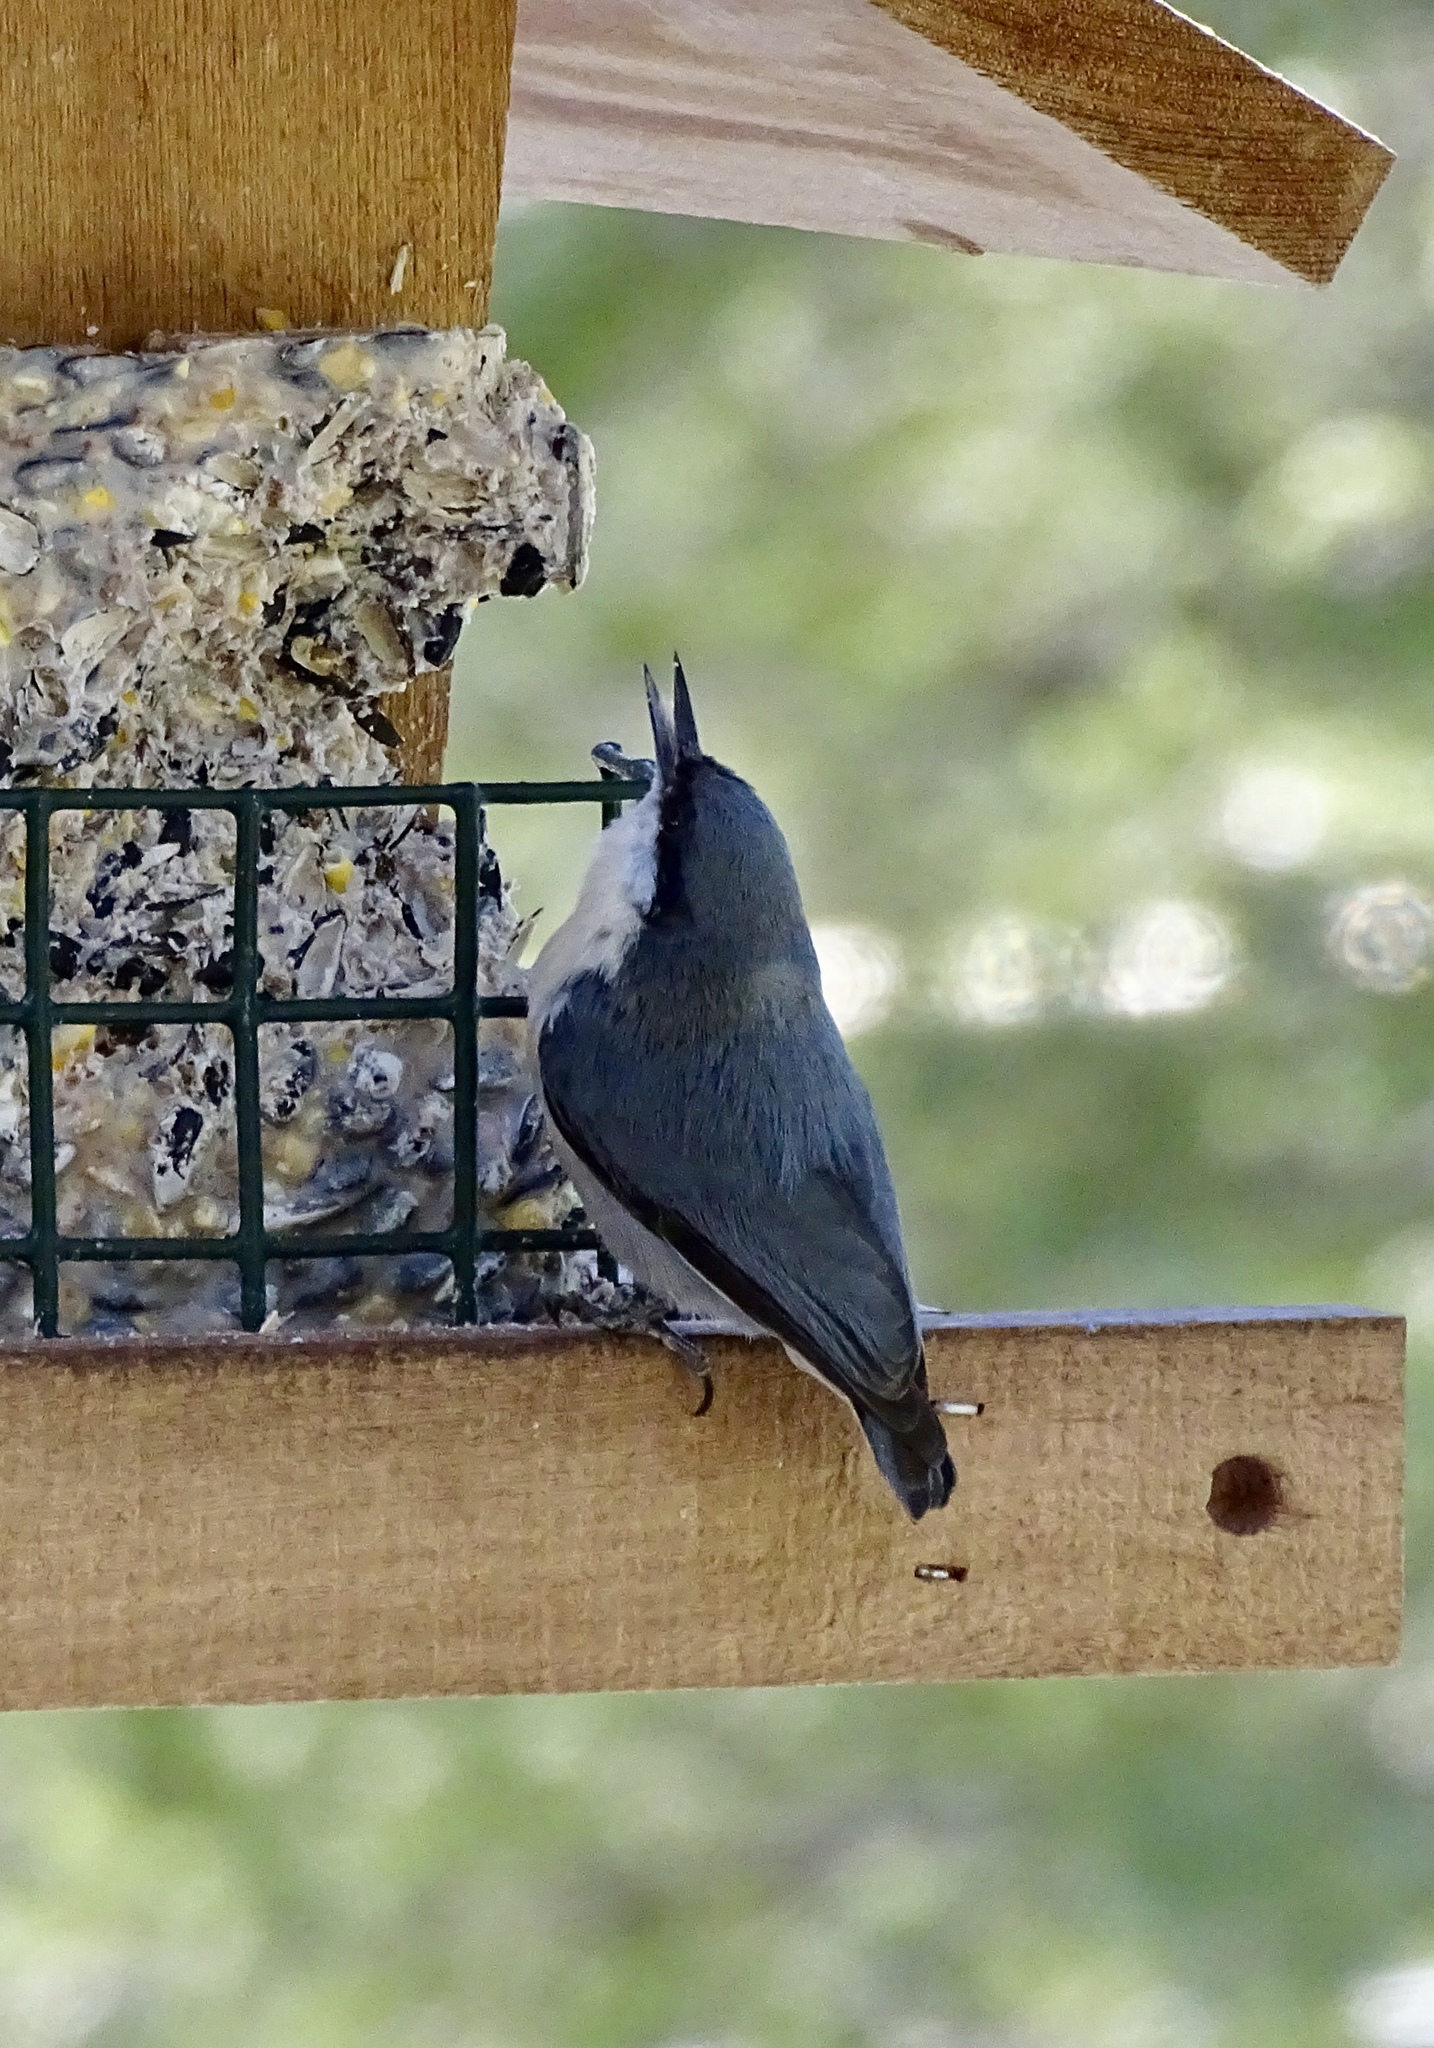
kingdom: Animalia
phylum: Chordata
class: Aves
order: Passeriformes
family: Sittidae
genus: Sitta
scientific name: Sitta pygmaea
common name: Pygmy nuthatch
